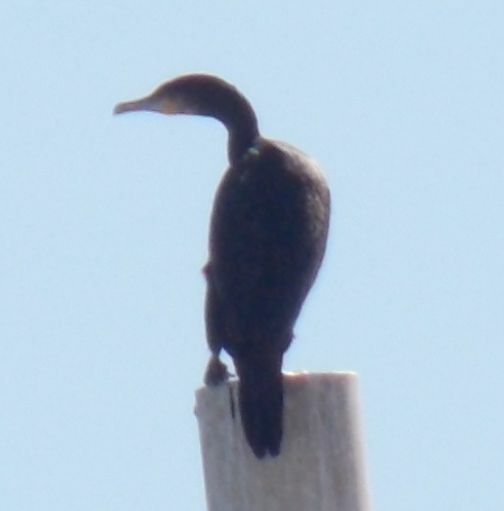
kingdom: Animalia
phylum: Chordata
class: Aves
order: Suliformes
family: Phalacrocoracidae
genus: Phalacrocorax
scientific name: Phalacrocorax carbo
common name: Great cormorant
